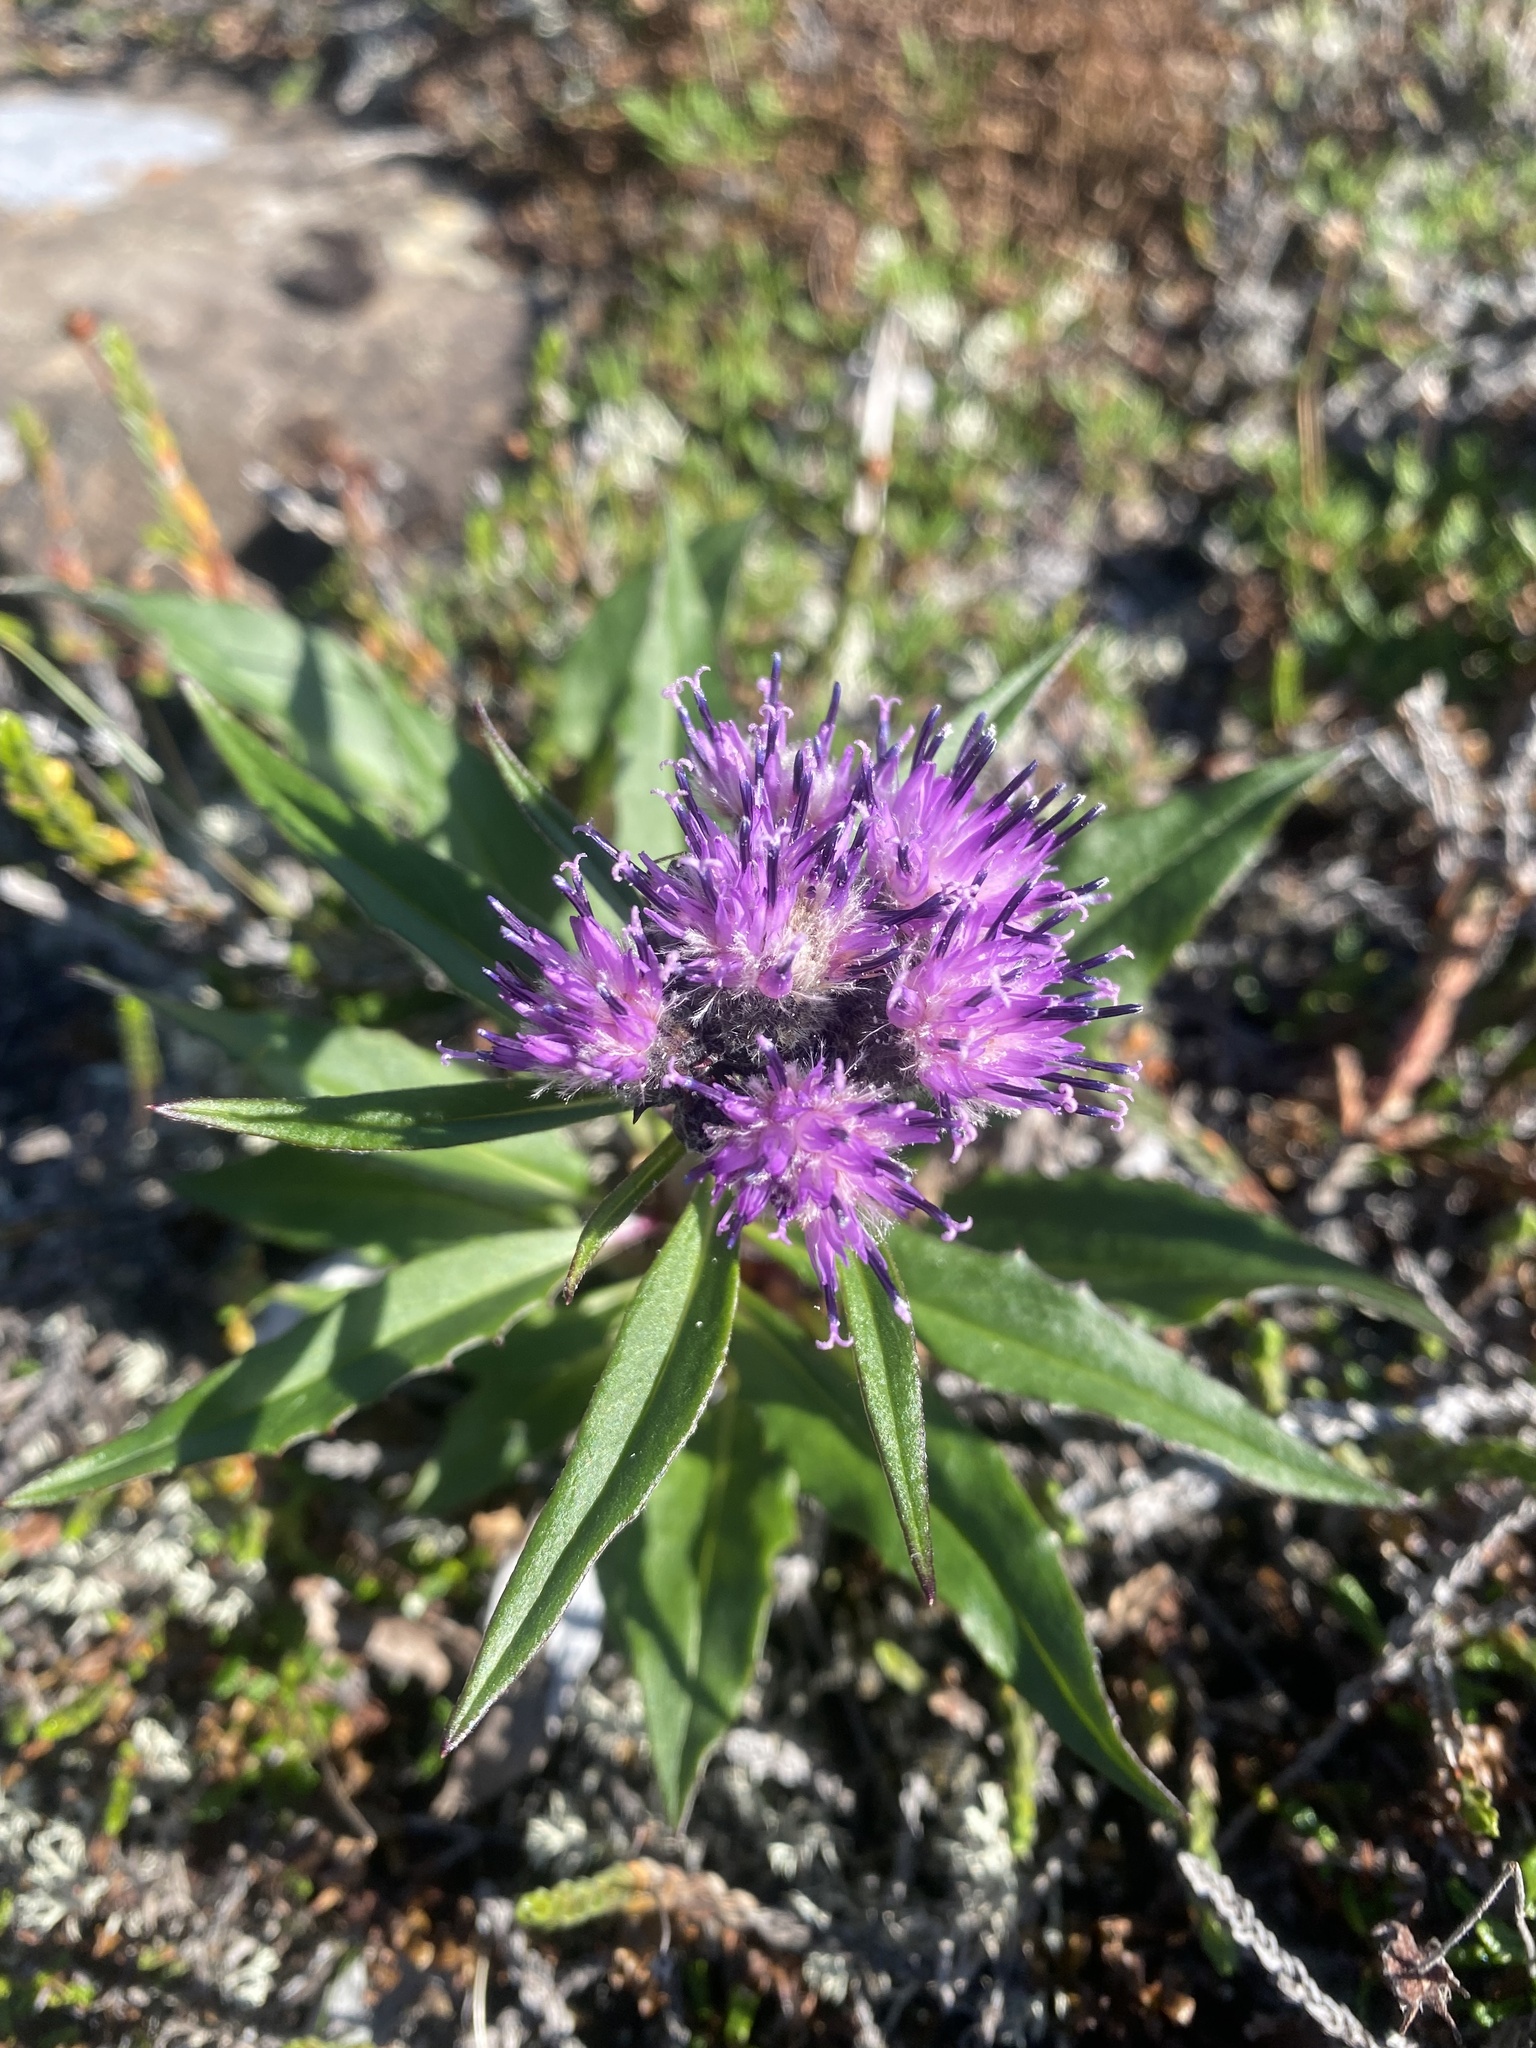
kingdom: Plantae
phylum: Tracheophyta
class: Magnoliopsida
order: Asterales
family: Asteraceae
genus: Saussurea
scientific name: Saussurea tilesii
